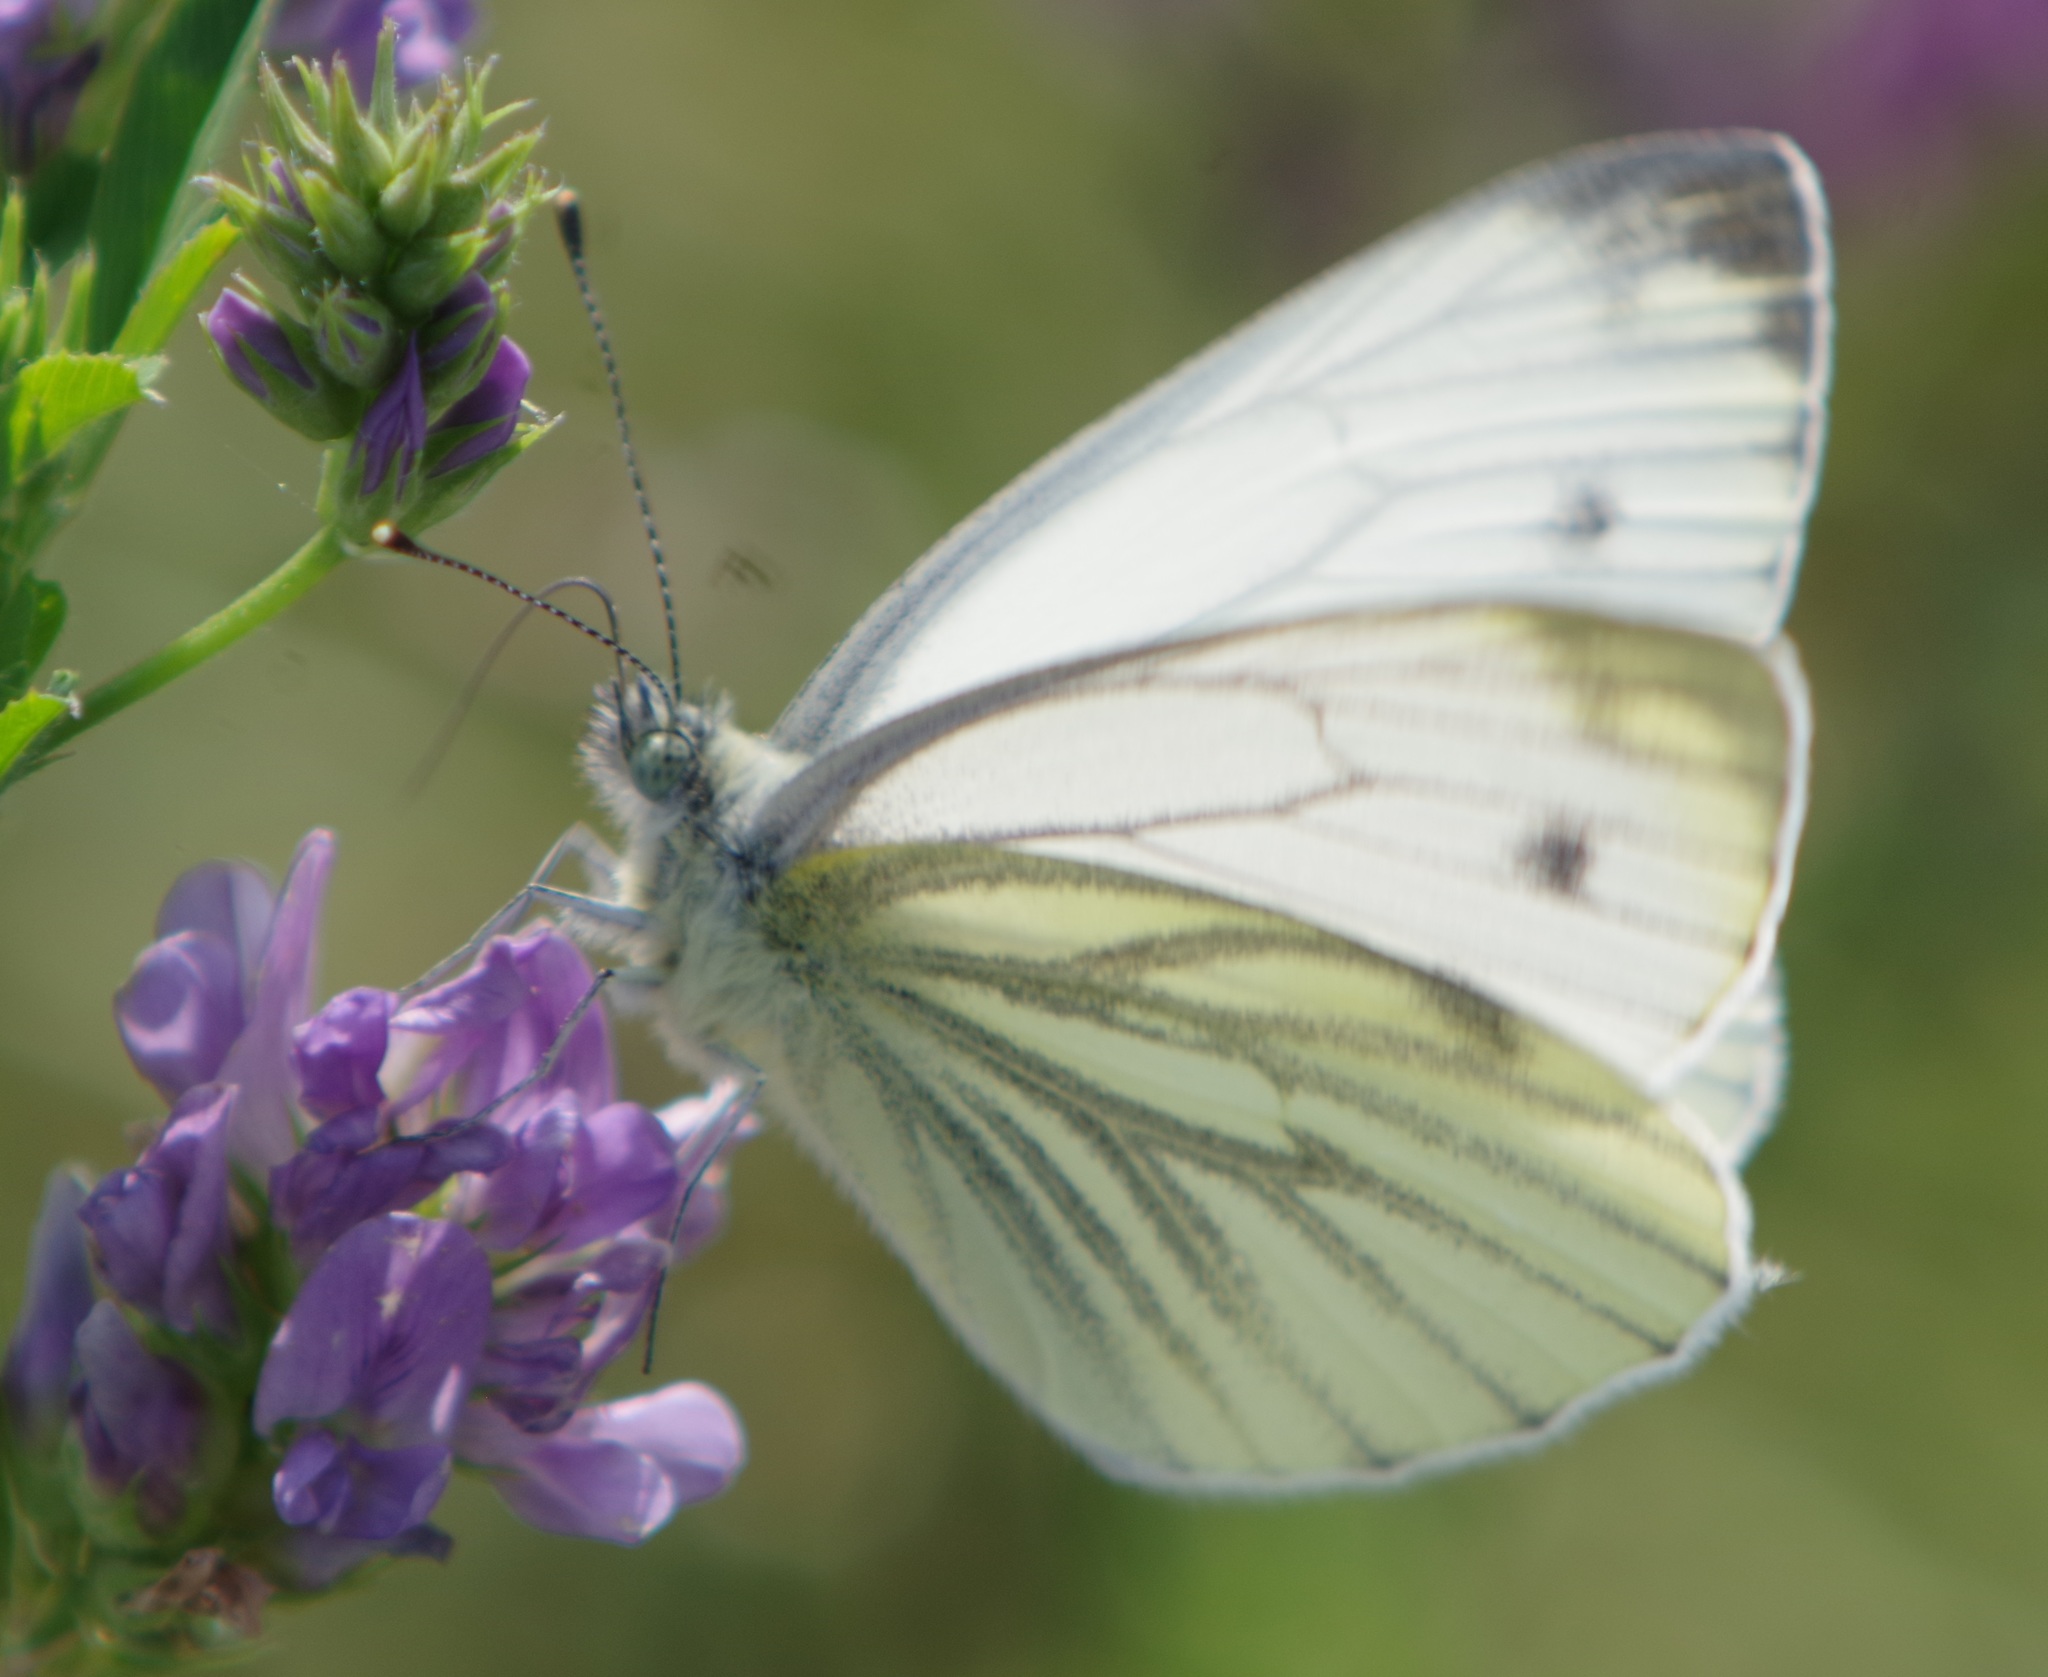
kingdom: Animalia
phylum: Arthropoda
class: Insecta
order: Lepidoptera
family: Pieridae
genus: Pieris
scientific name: Pieris napi
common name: Green-veined white
